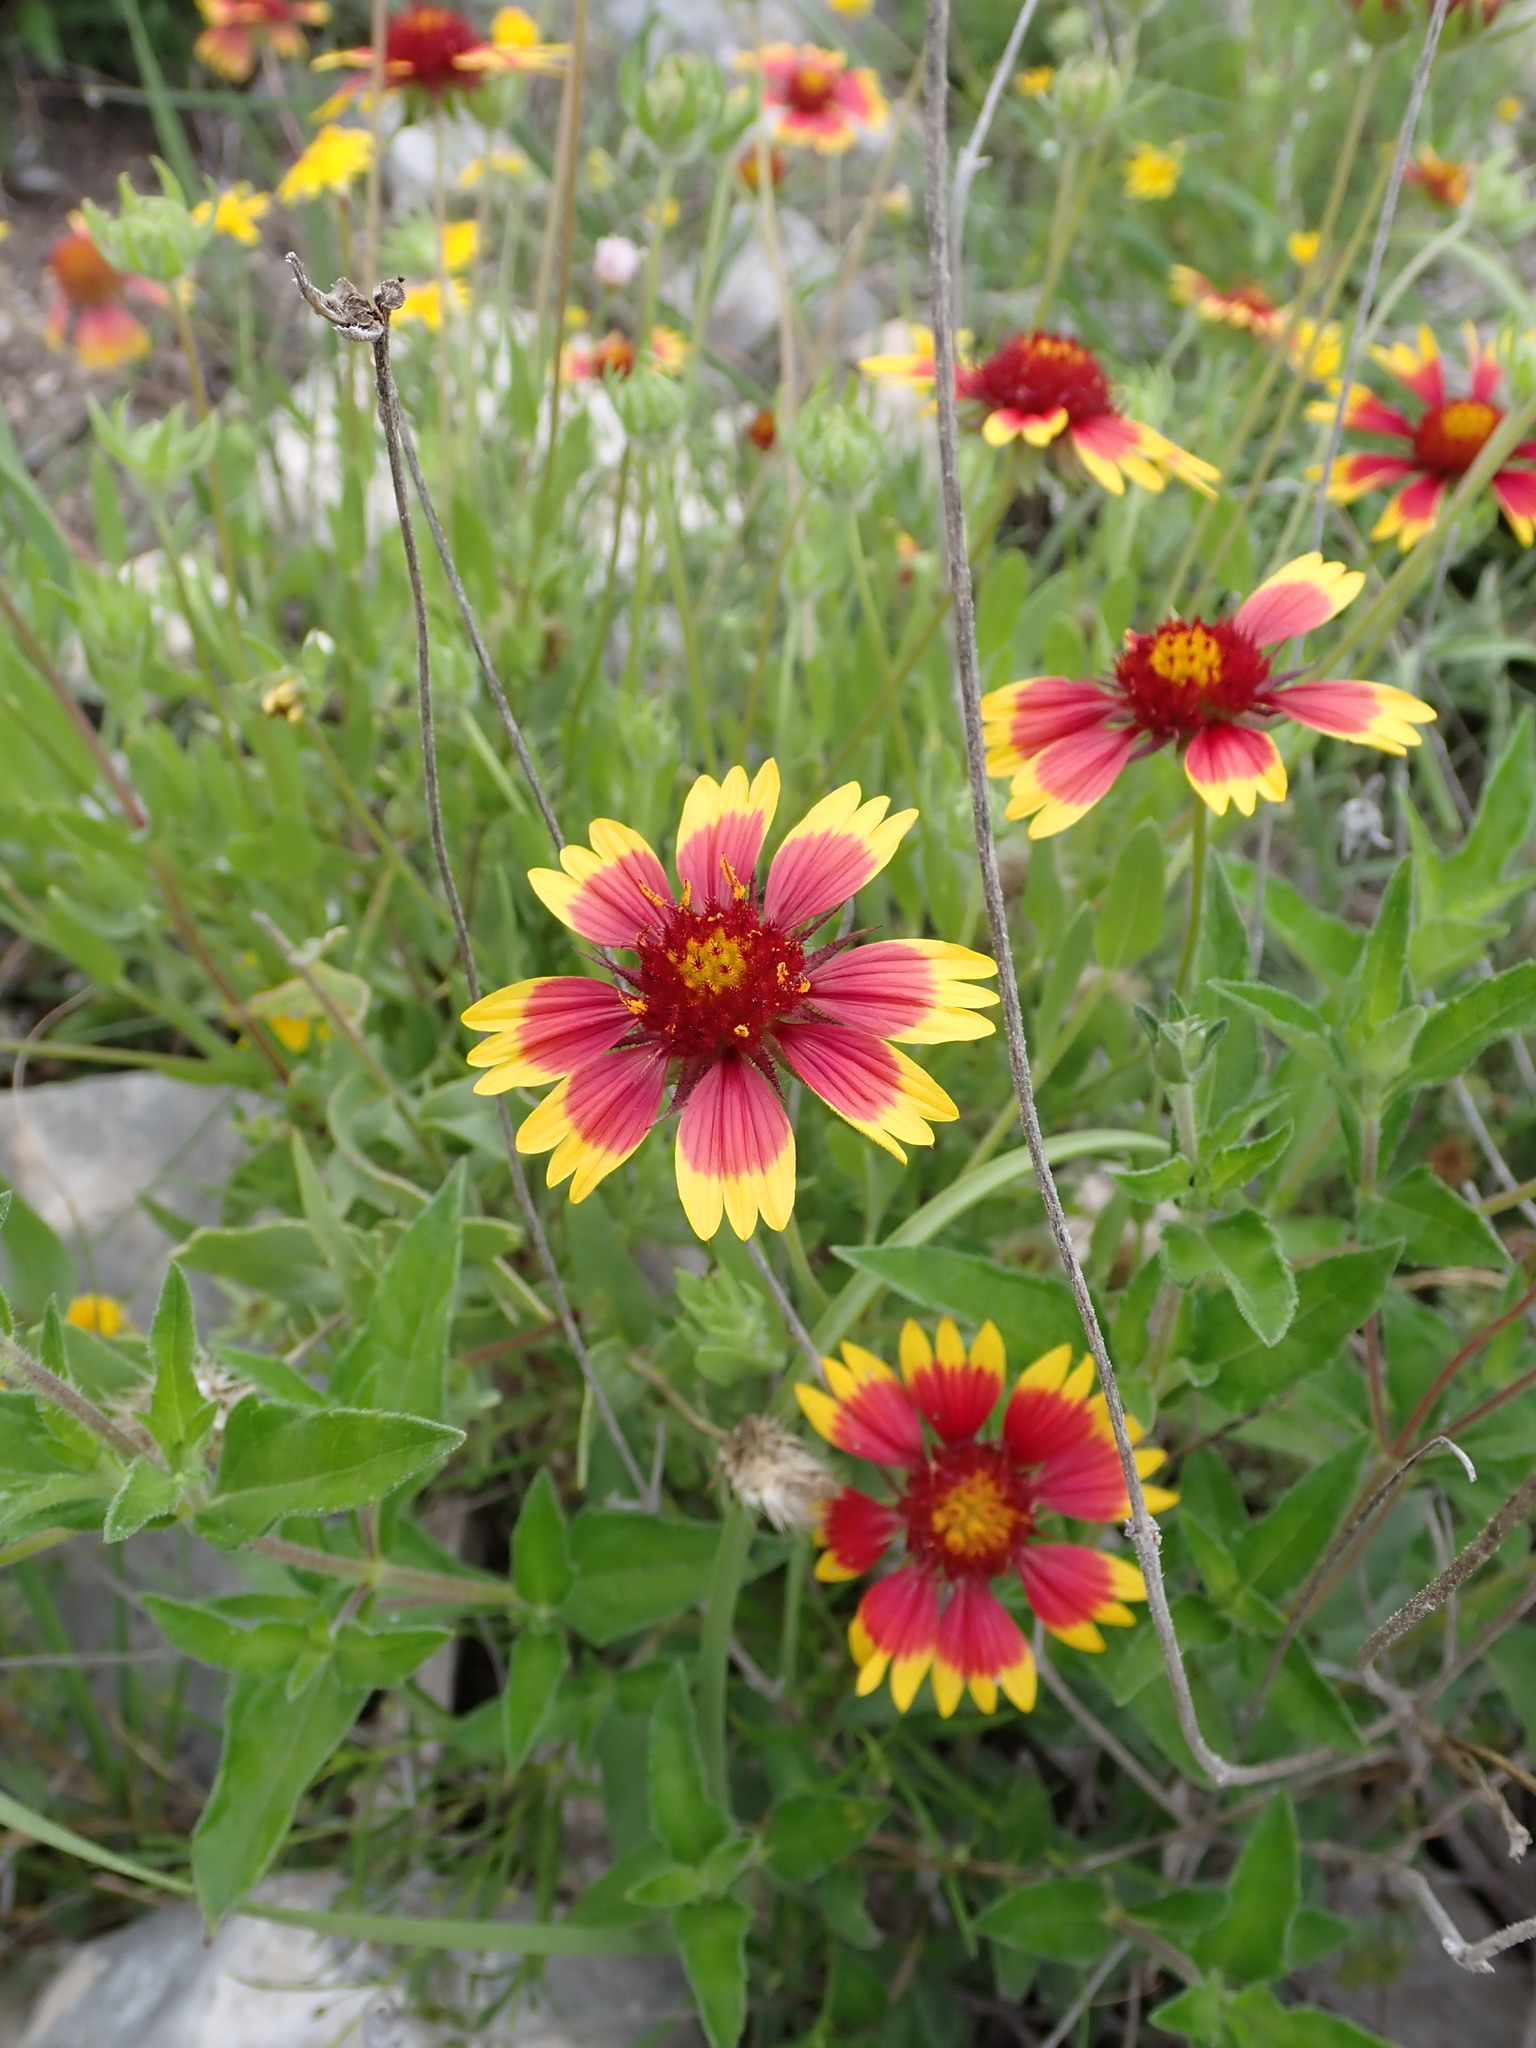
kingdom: Plantae
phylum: Tracheophyta
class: Magnoliopsida
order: Asterales
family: Asteraceae
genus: Gaillardia
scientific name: Gaillardia pulchella
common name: Firewheel
